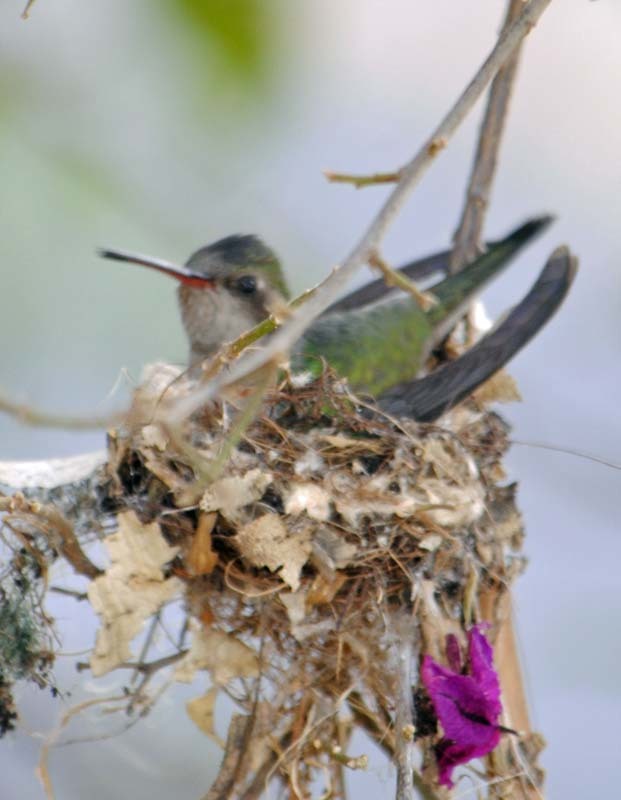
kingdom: Animalia
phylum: Chordata
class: Aves
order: Apodiformes
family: Trochilidae
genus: Cynanthus
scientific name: Cynanthus latirostris
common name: Broad-billed hummingbird
